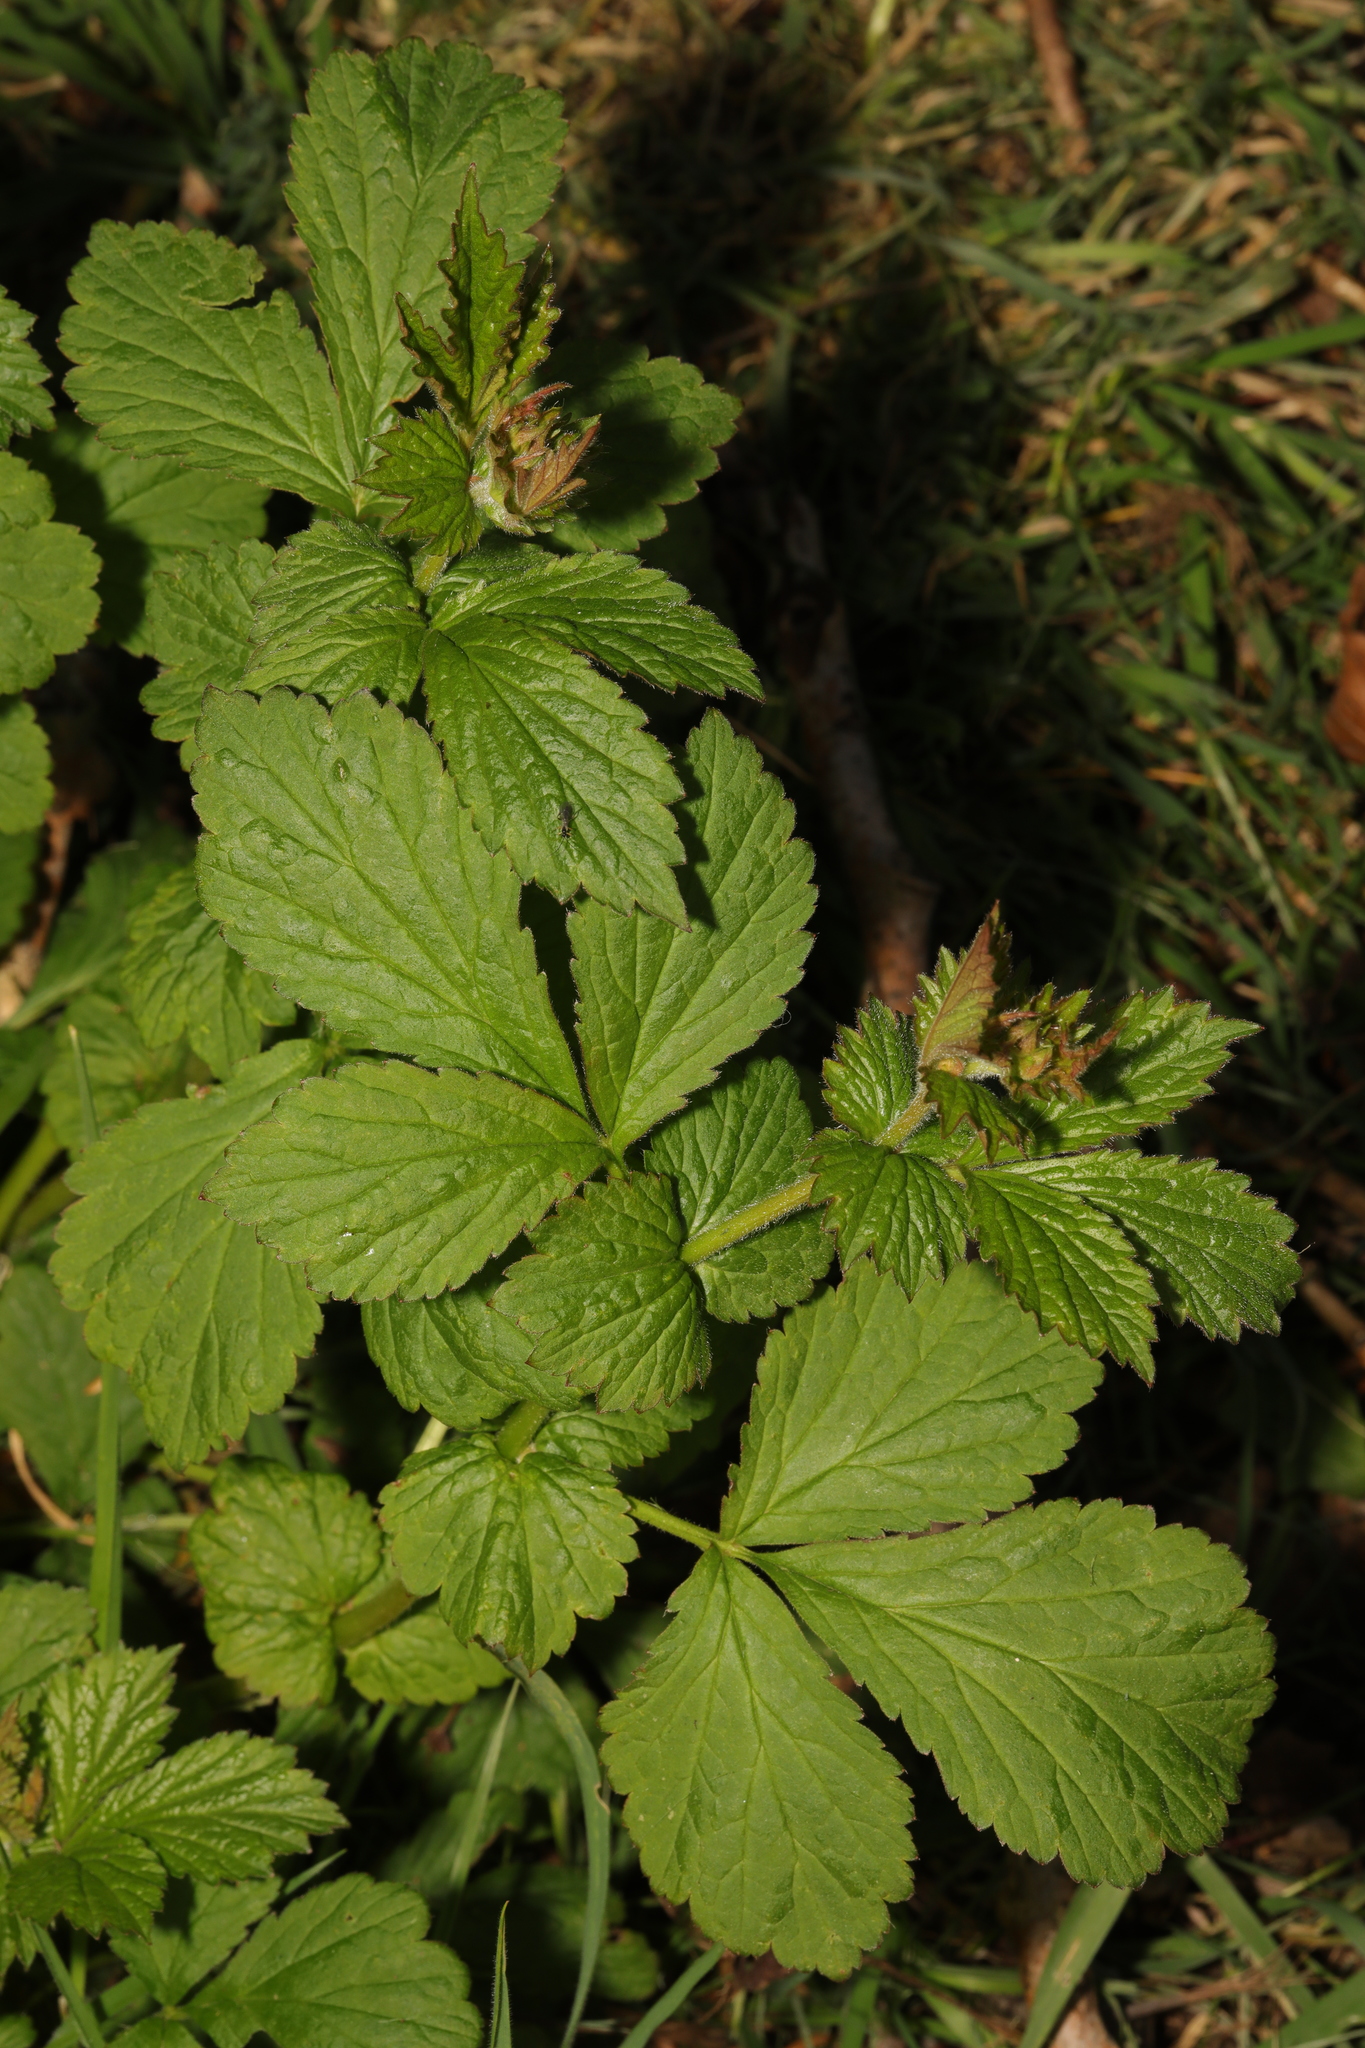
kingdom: Plantae
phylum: Tracheophyta
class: Magnoliopsida
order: Rosales
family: Rosaceae
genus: Geum
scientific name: Geum urbanum
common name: Wood avens
